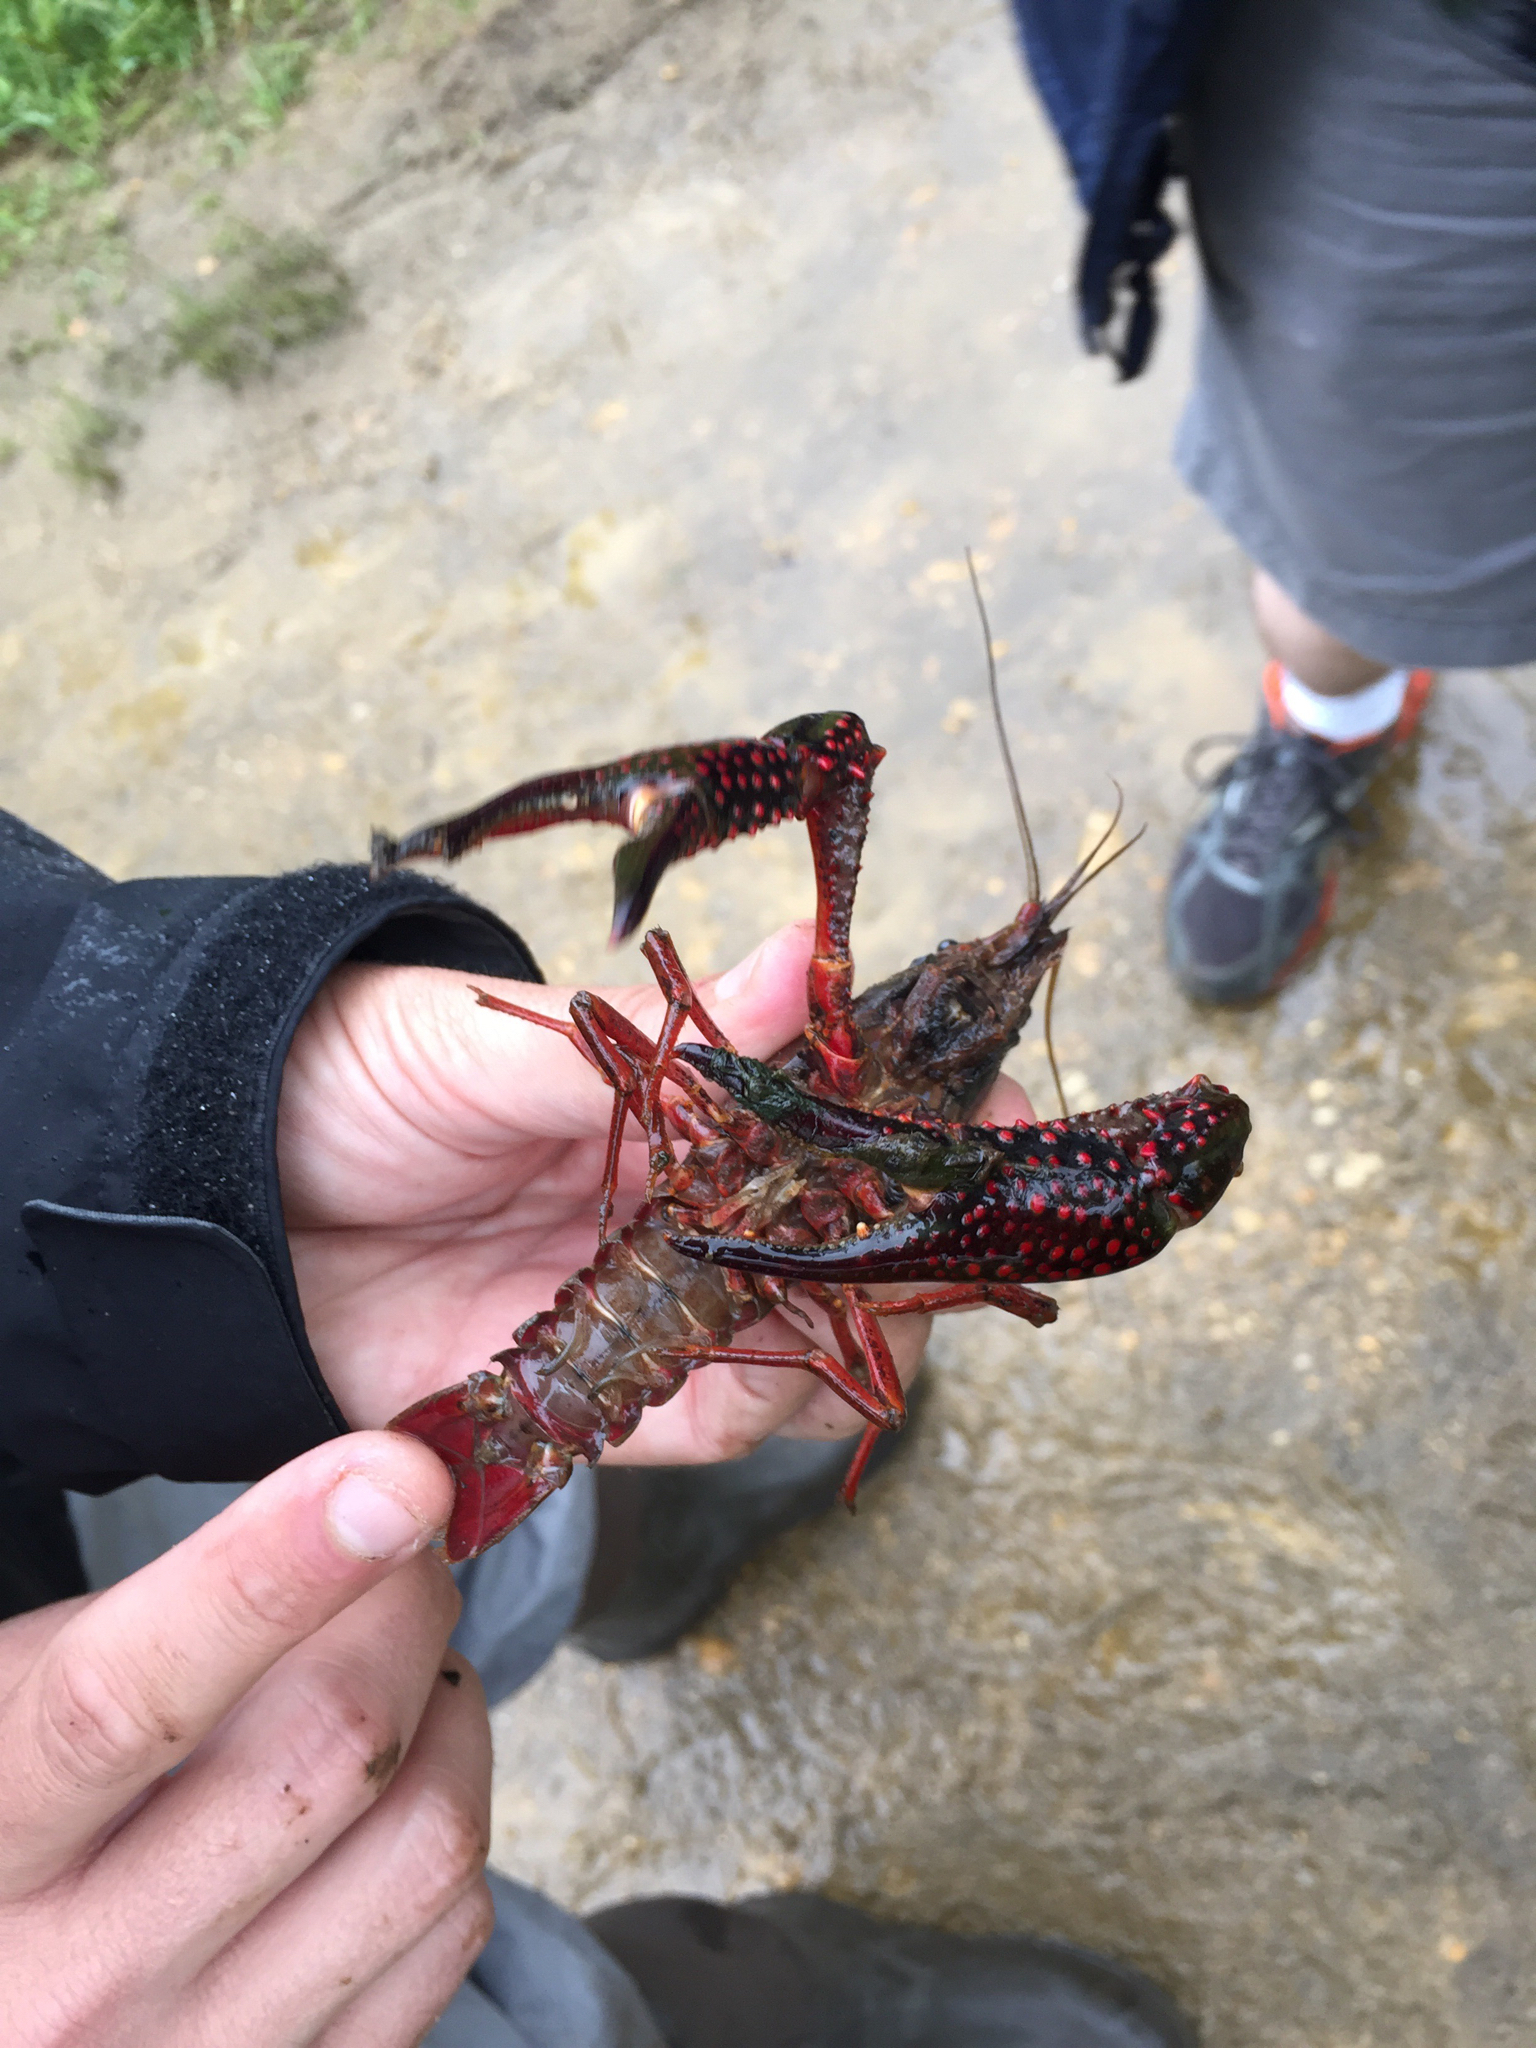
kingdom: Animalia
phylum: Arthropoda
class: Malacostraca
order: Decapoda
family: Cambaridae
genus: Procambarus
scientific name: Procambarus clarkii
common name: Red swamp crayfish
